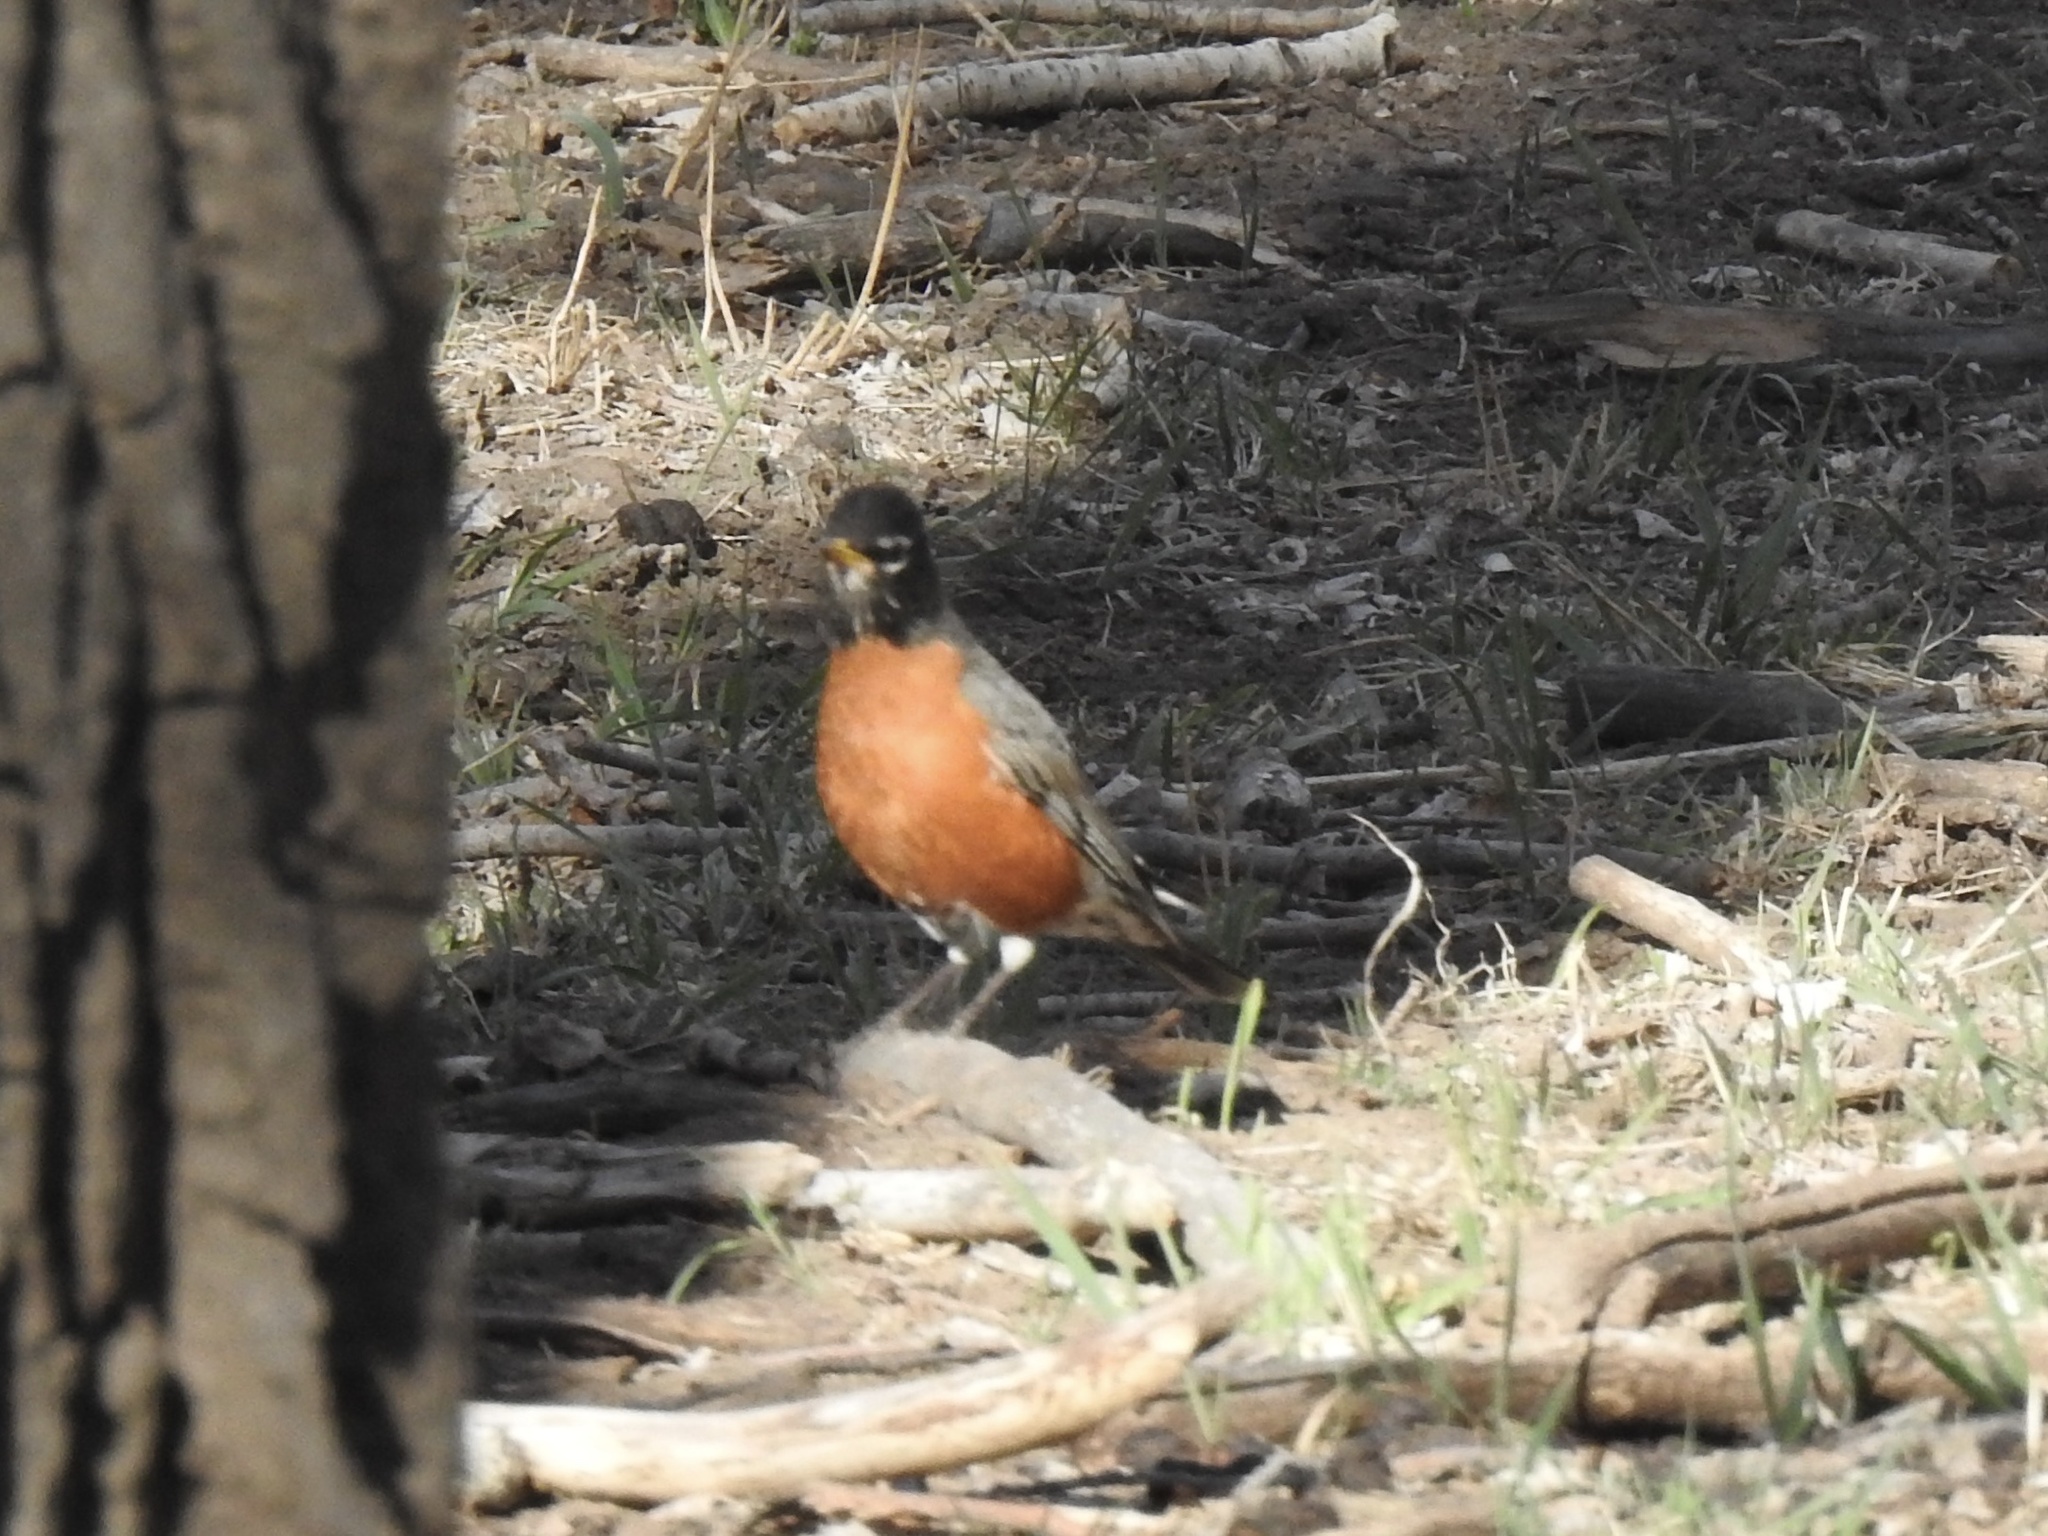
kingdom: Animalia
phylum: Chordata
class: Aves
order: Passeriformes
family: Turdidae
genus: Turdus
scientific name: Turdus migratorius
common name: American robin
